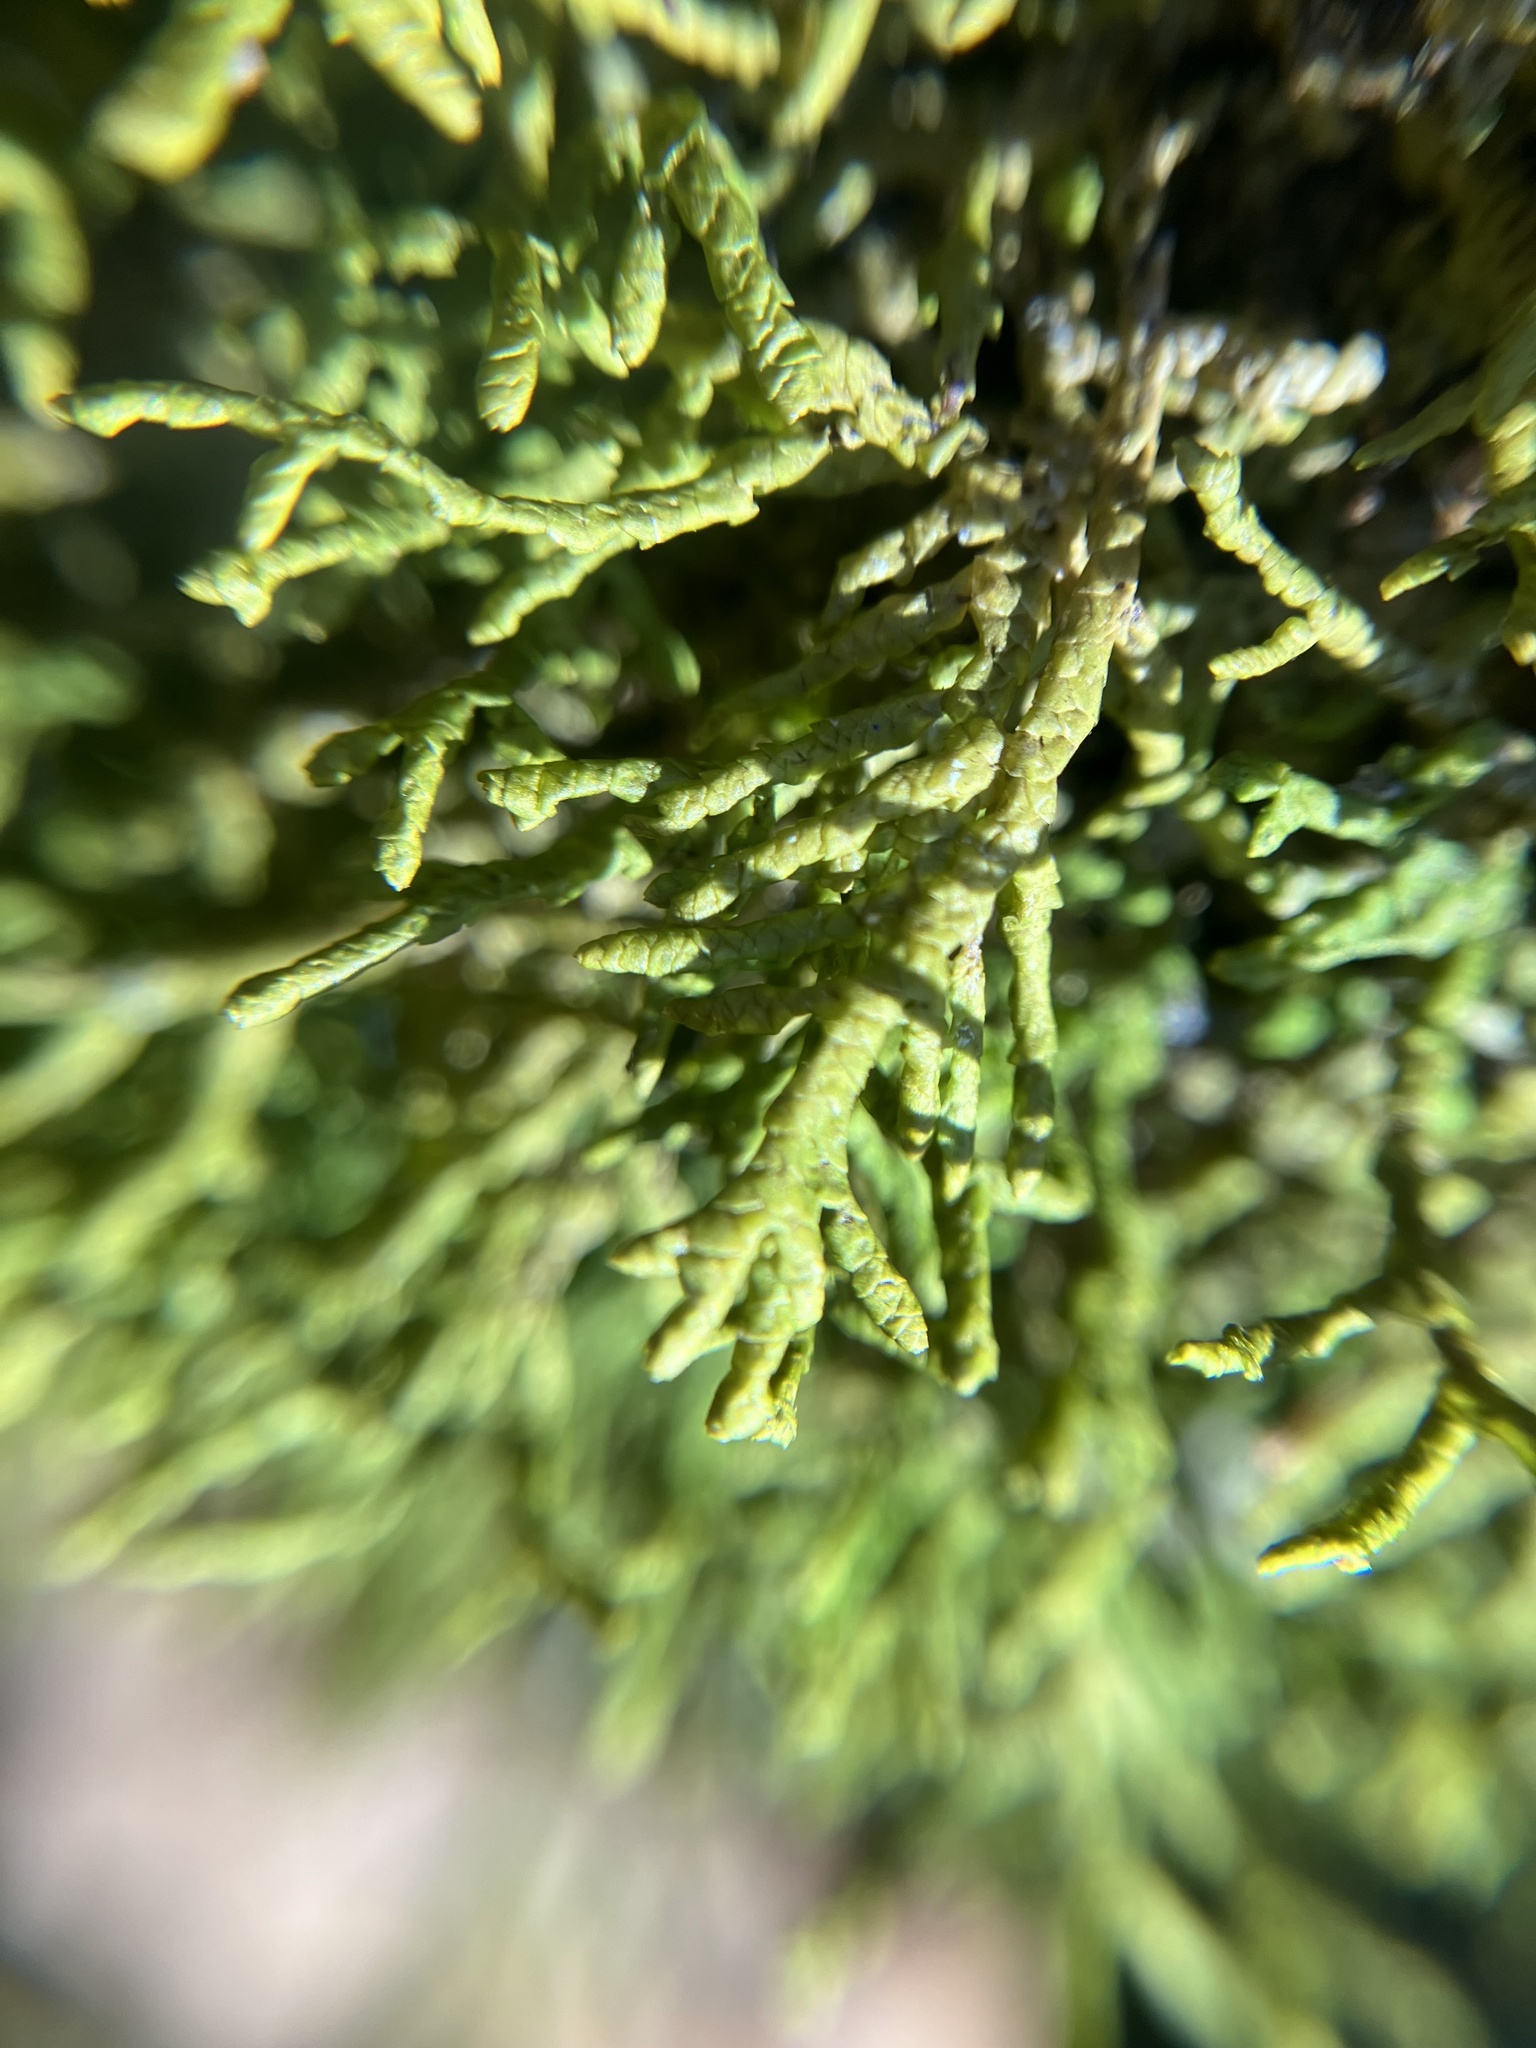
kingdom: Plantae
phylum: Marchantiophyta
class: Jungermanniopsida
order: Porellales
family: Porellaceae
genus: Porella
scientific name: Porella platyphylla
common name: Wall scalewort
